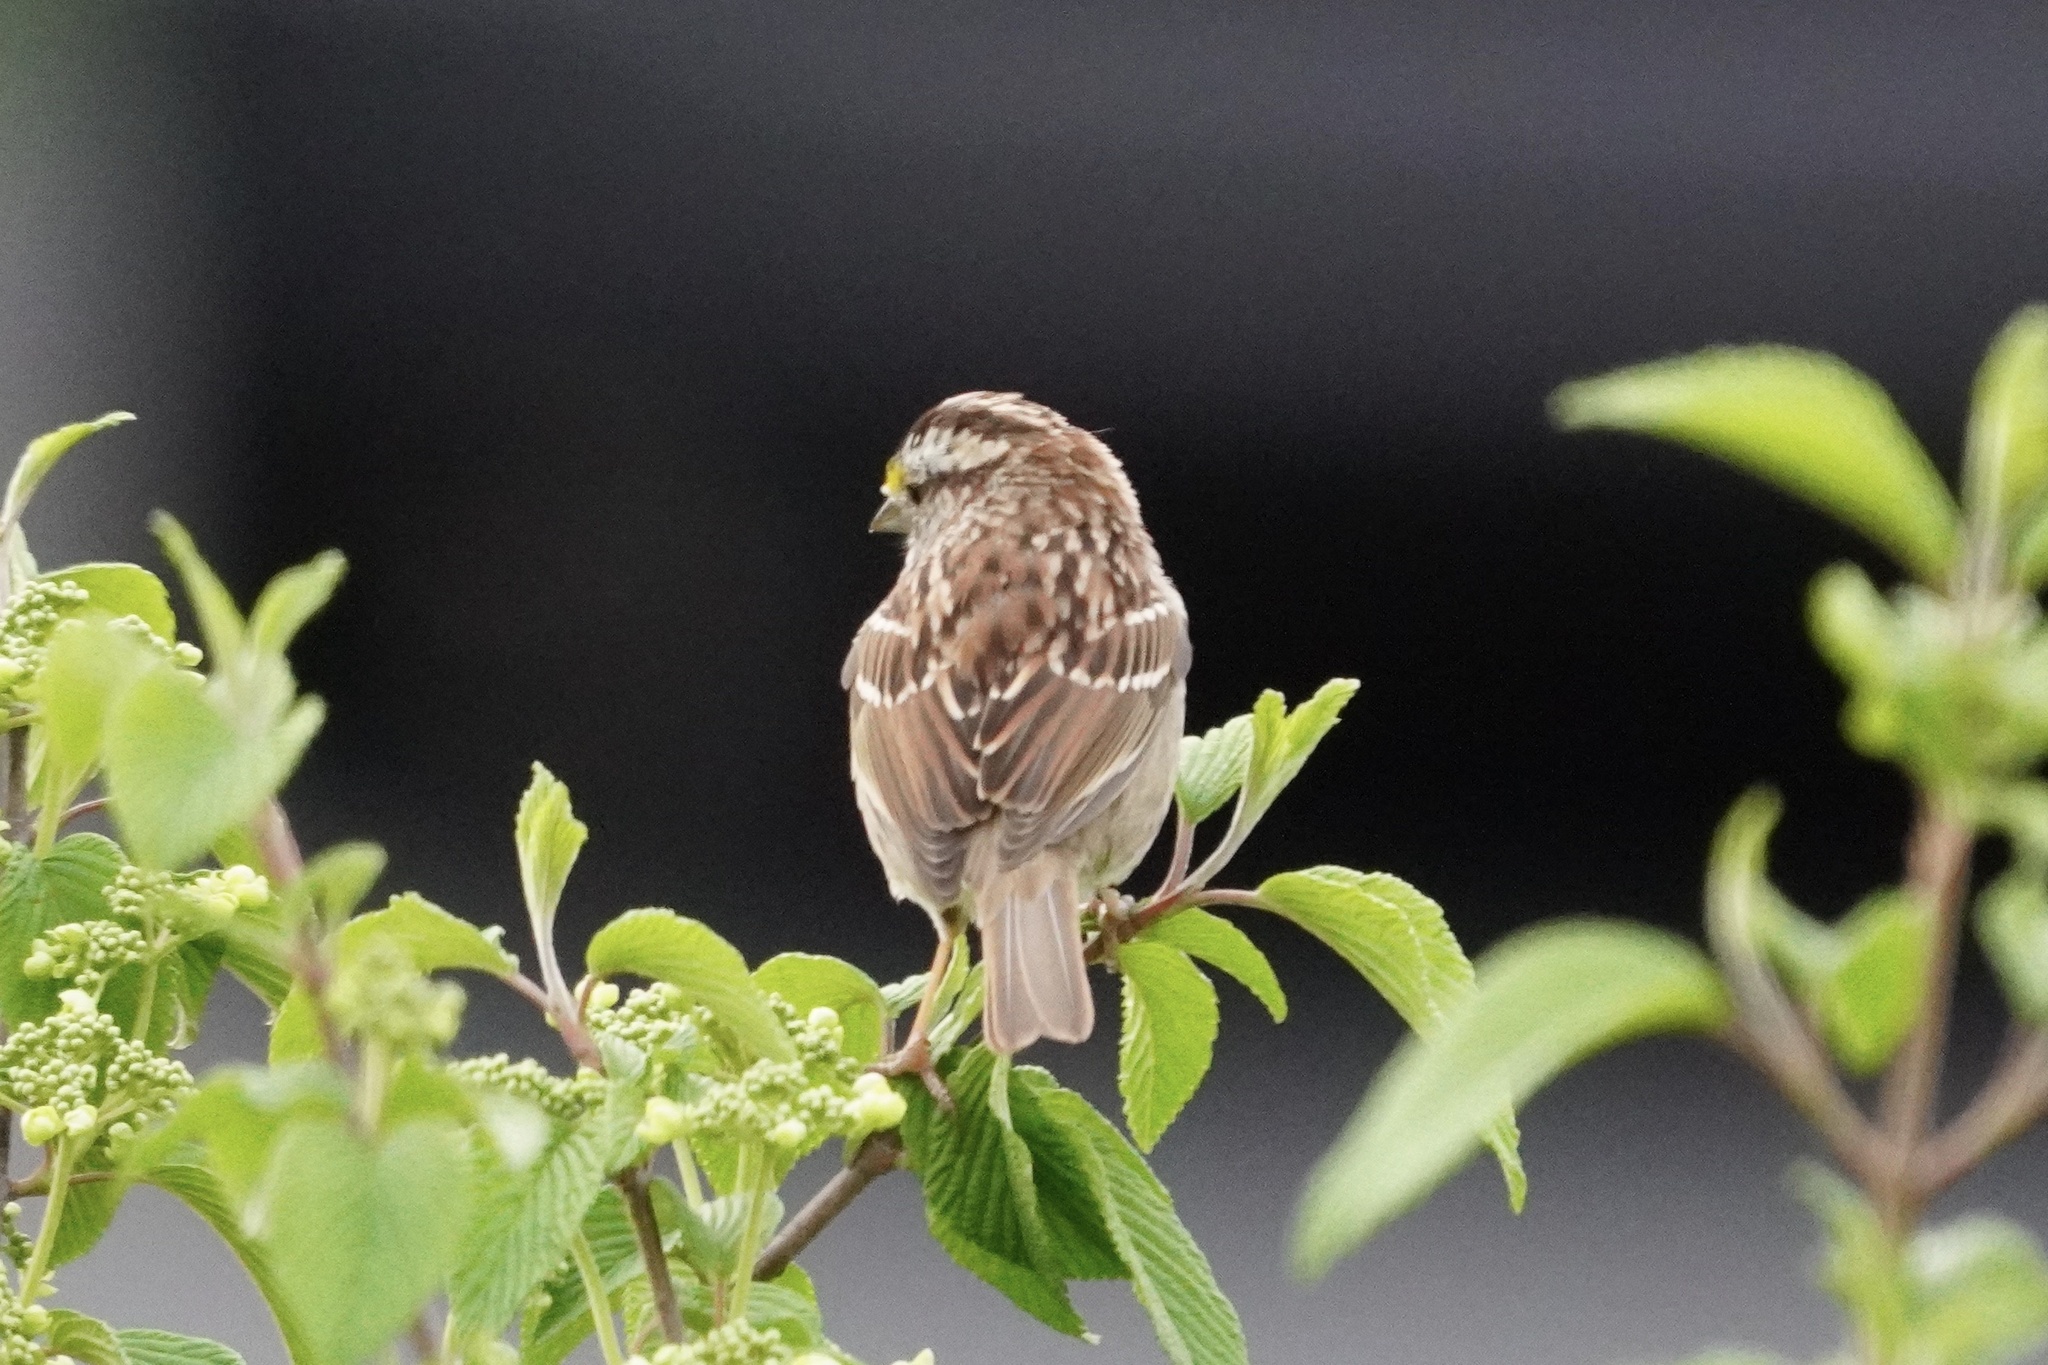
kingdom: Animalia
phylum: Chordata
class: Aves
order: Passeriformes
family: Passerellidae
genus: Zonotrichia
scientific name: Zonotrichia albicollis
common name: White-throated sparrow
